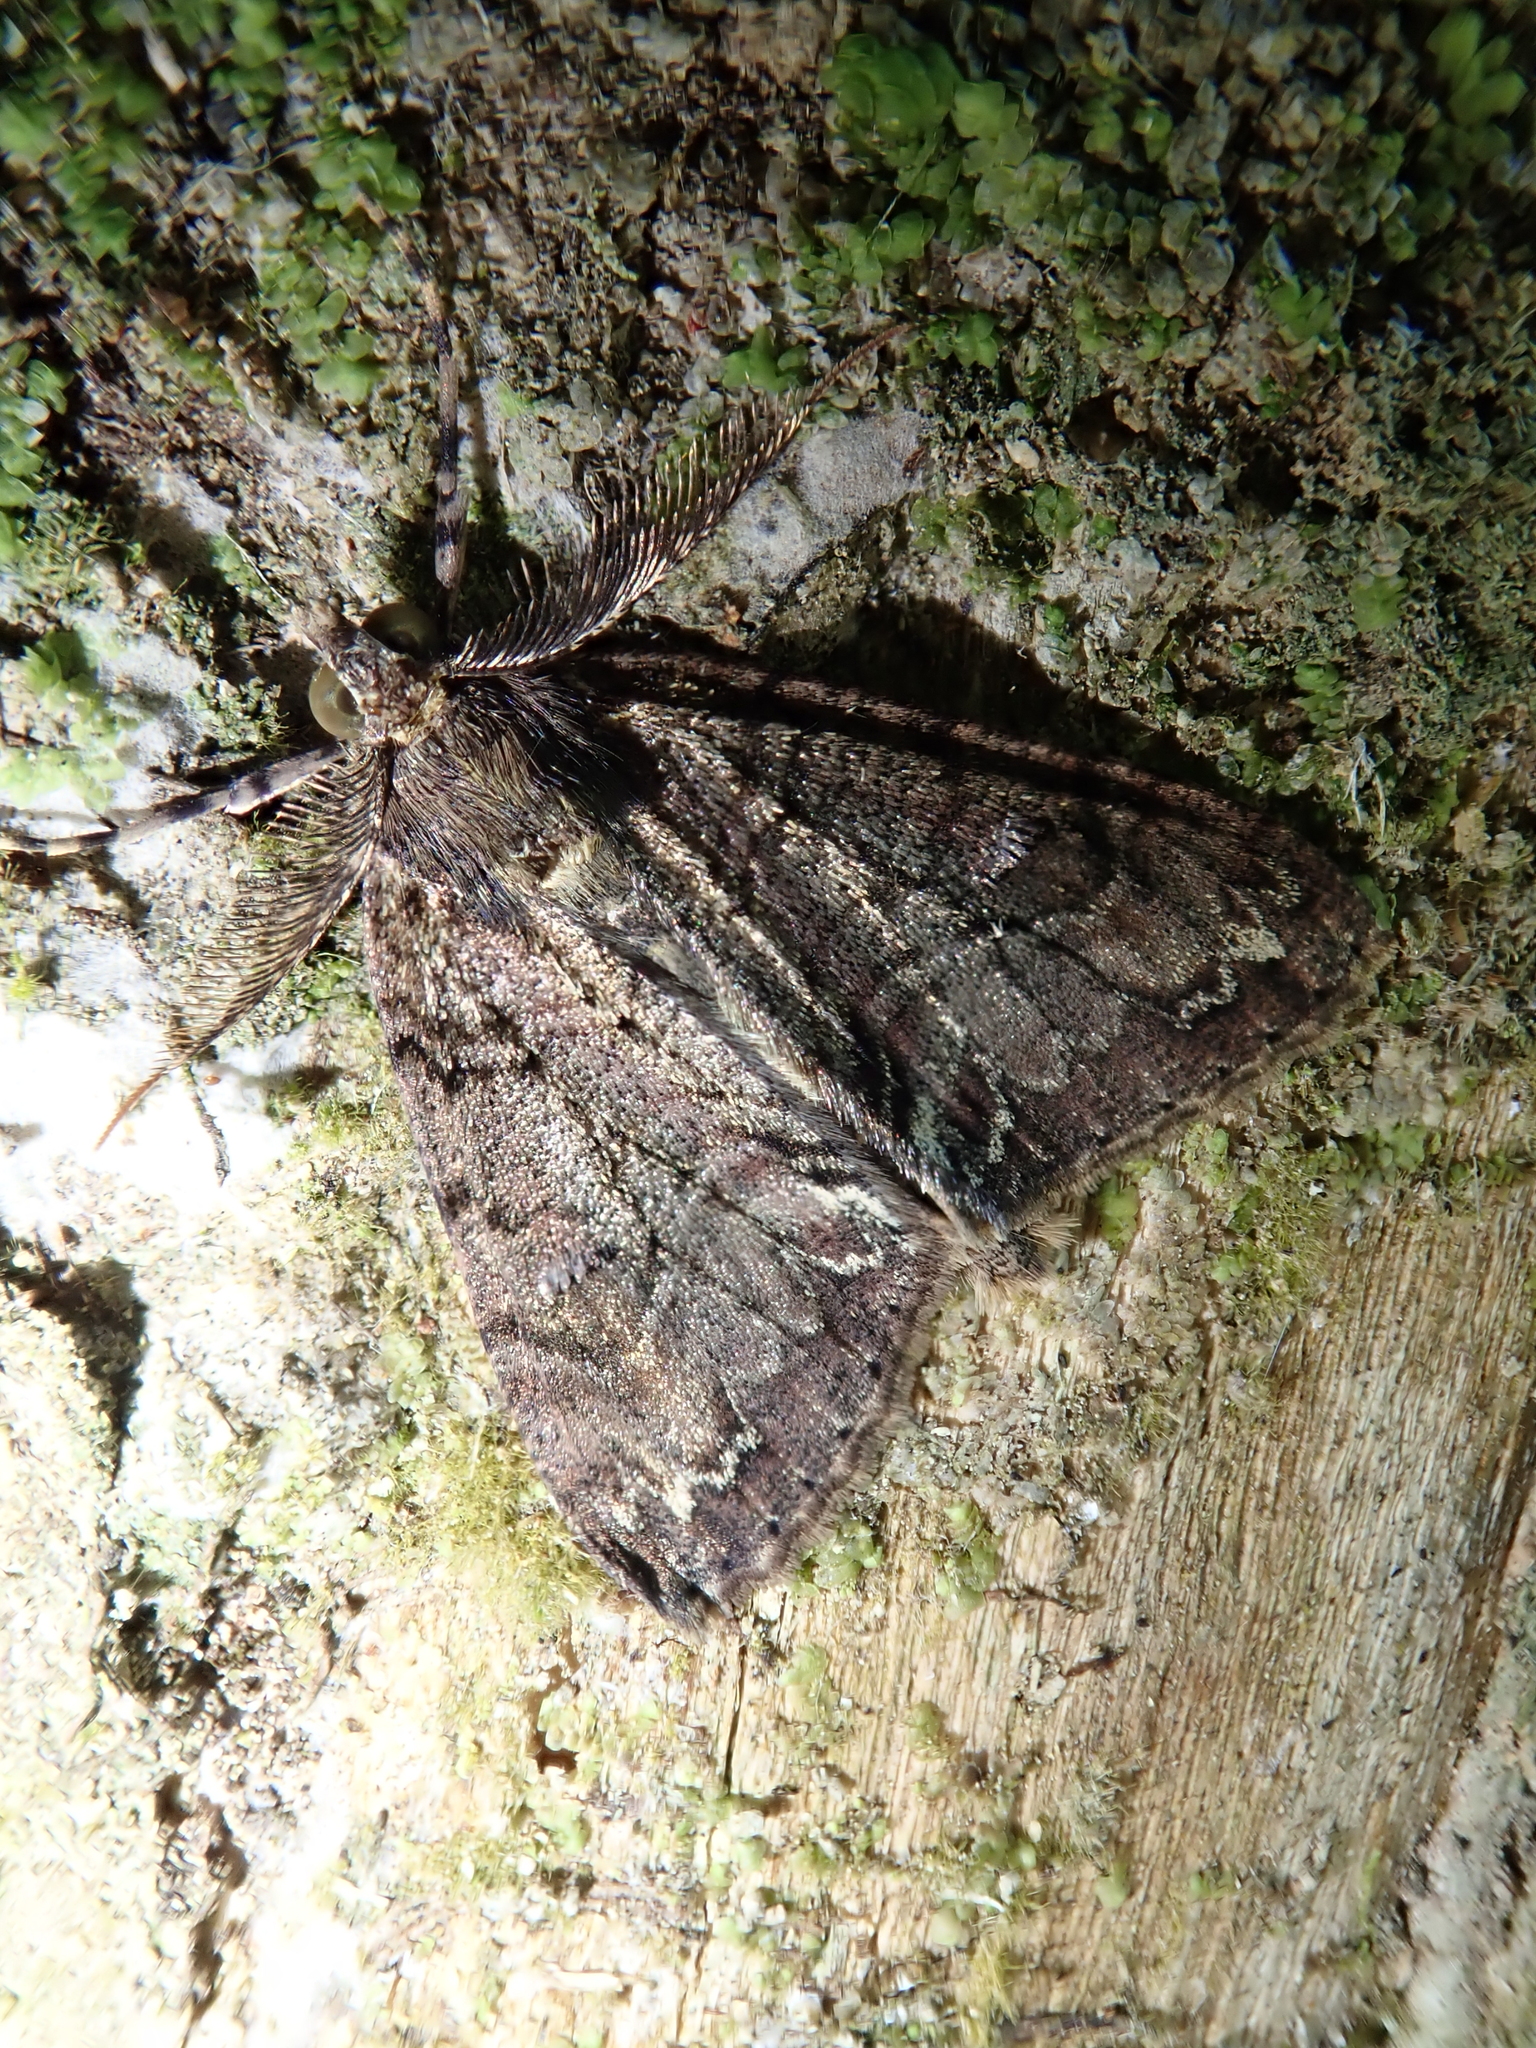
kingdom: Animalia
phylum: Arthropoda
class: Insecta
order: Lepidoptera
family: Geometridae
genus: Pseudocoremia
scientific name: Pseudocoremia suavis
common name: Common forest looper
